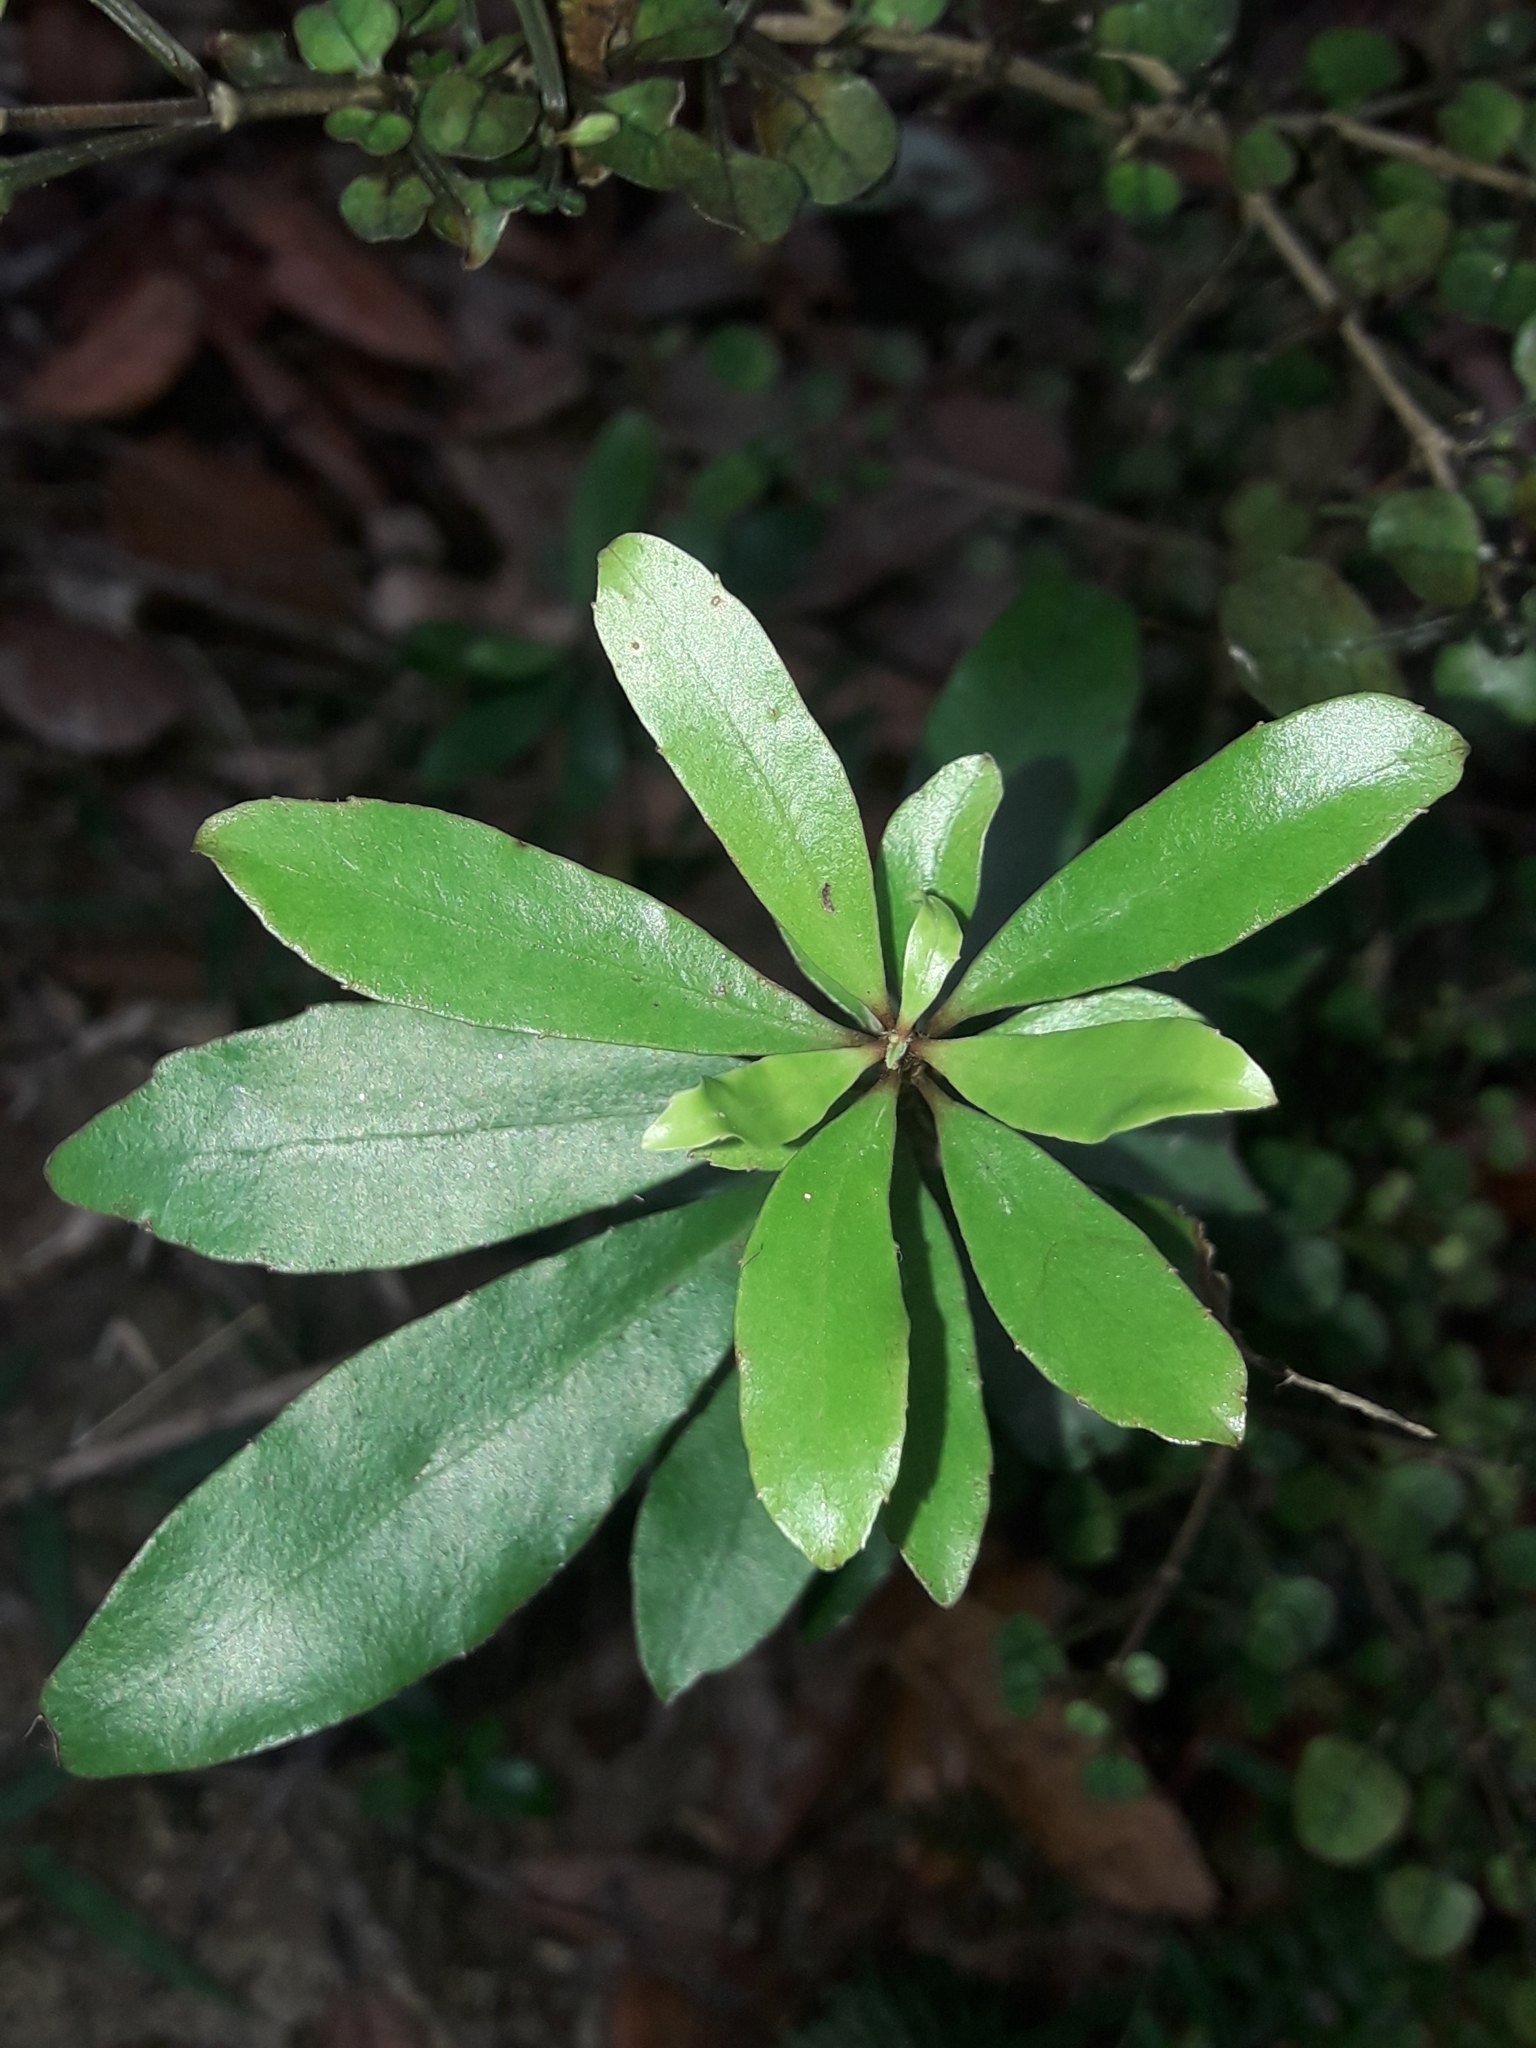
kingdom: Plantae
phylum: Tracheophyta
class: Magnoliopsida
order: Asterales
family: Alseuosmiaceae
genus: Alseuosmia
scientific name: Alseuosmia banksii
